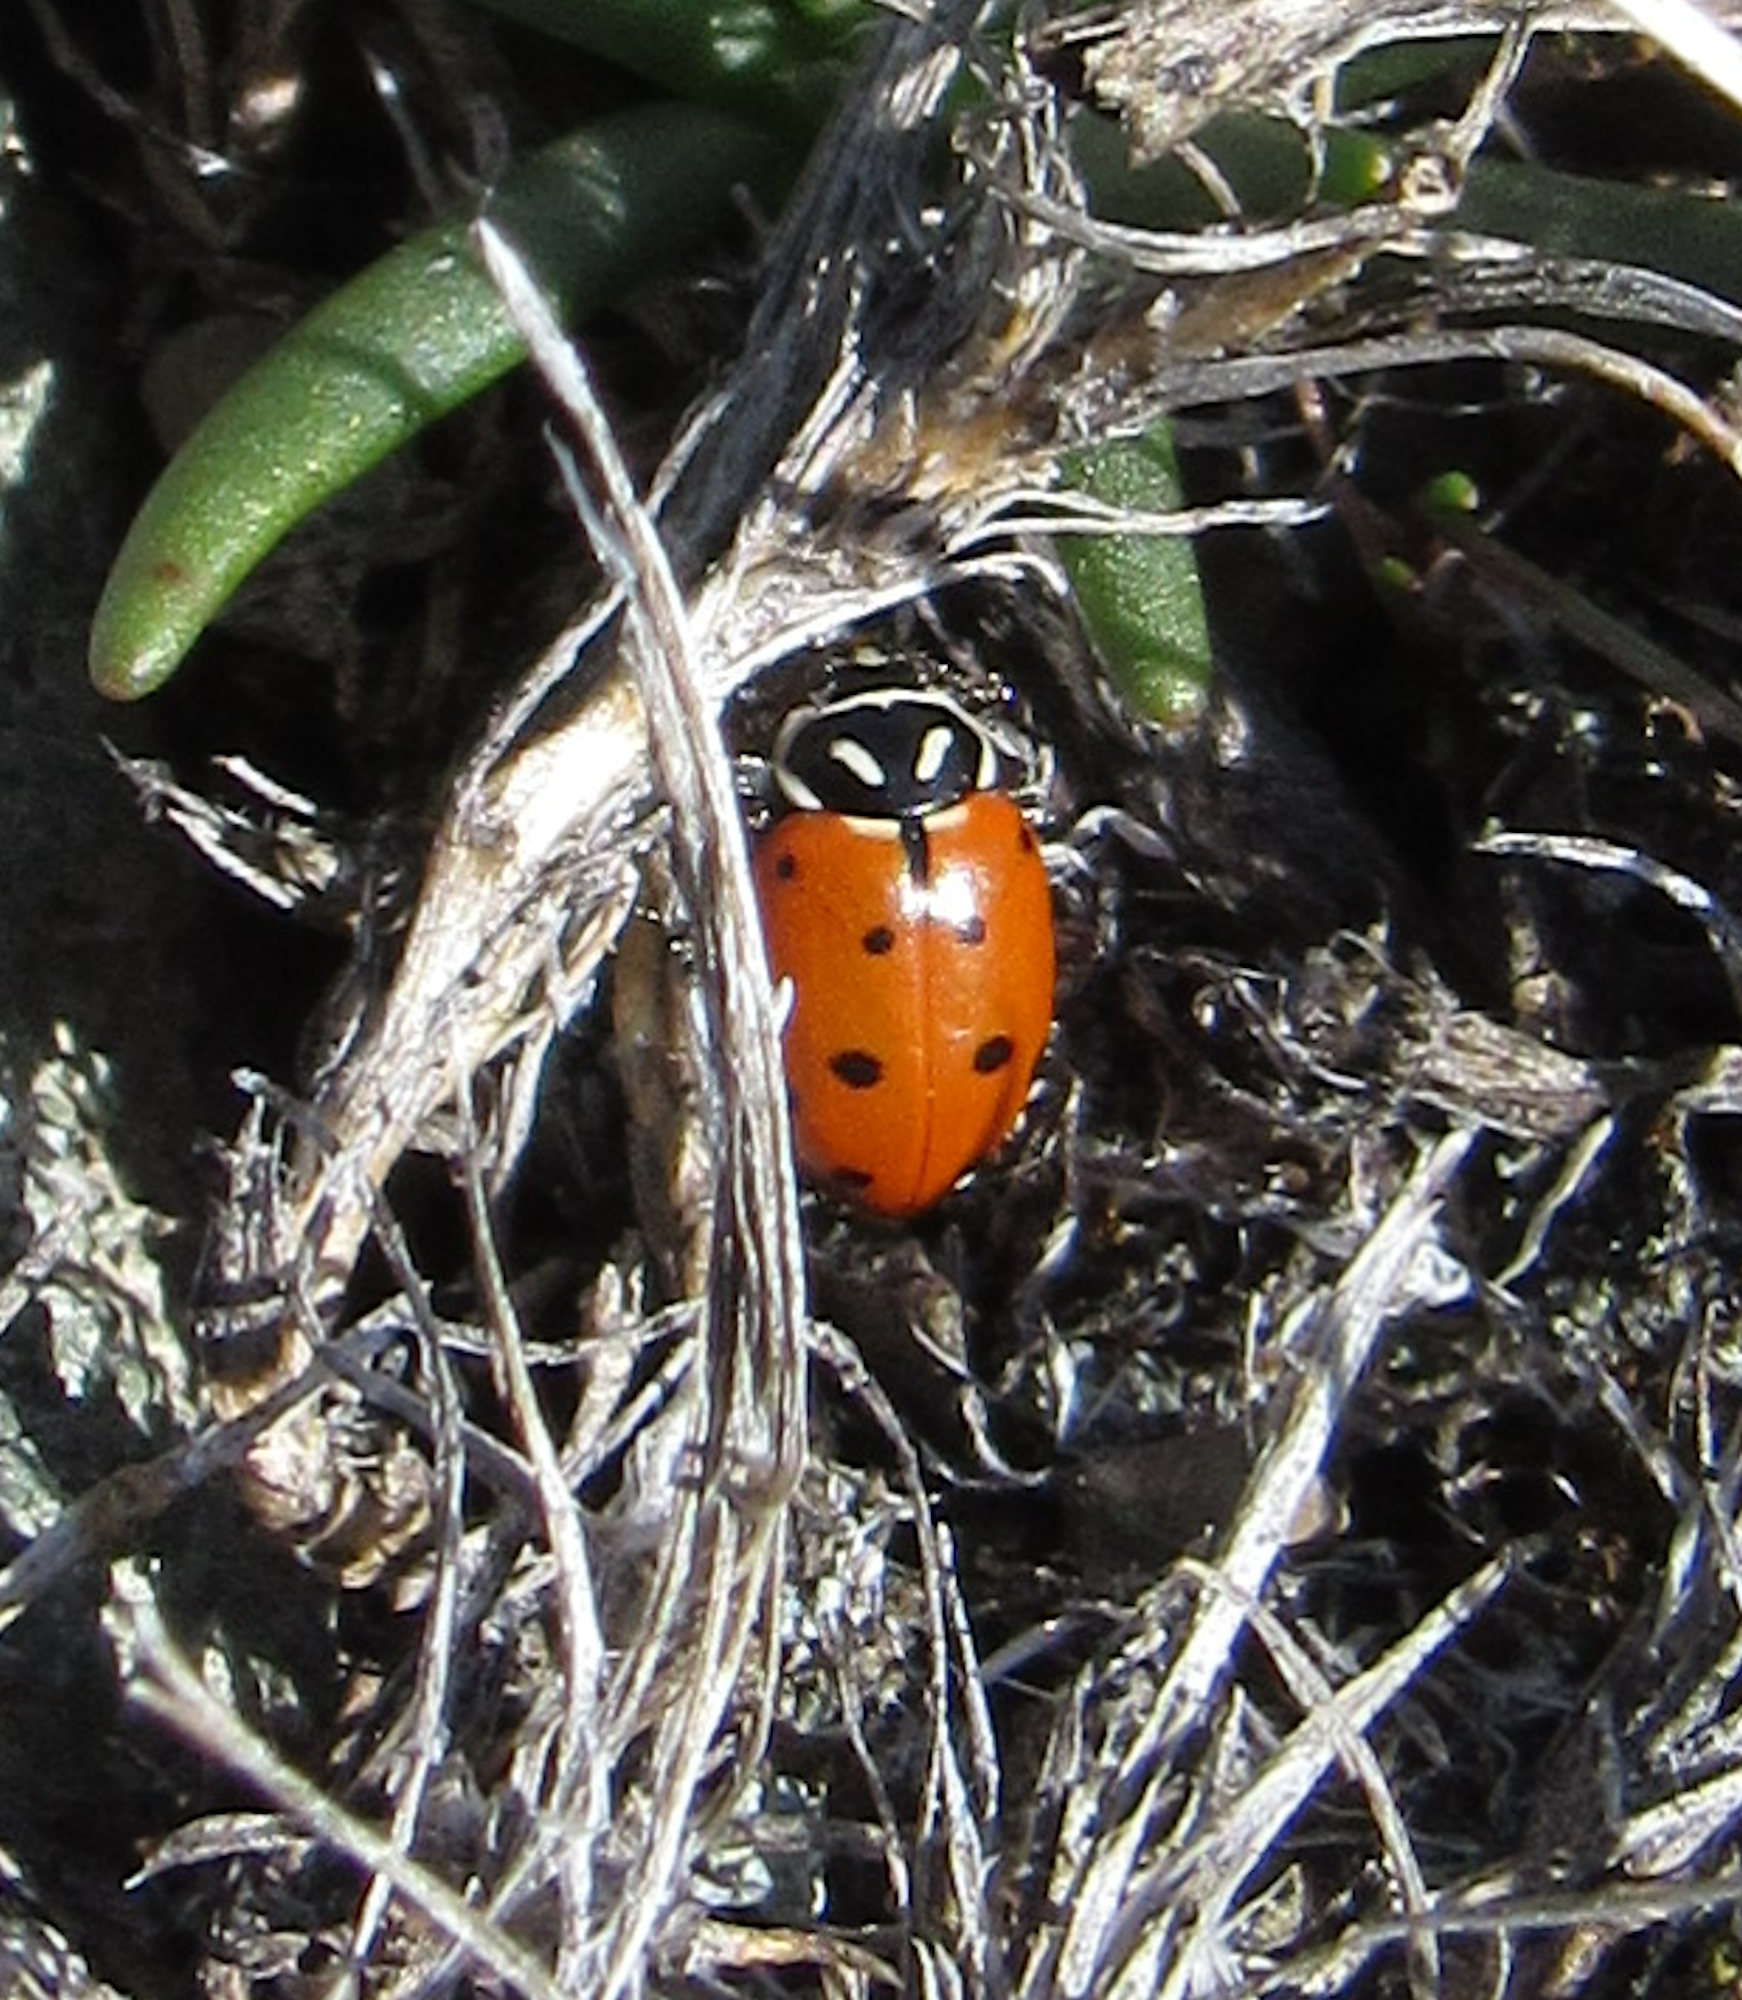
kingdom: Animalia
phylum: Arthropoda
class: Insecta
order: Coleoptera
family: Coccinellidae
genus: Hippodamia
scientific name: Hippodamia convergens
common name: Convergent lady beetle
